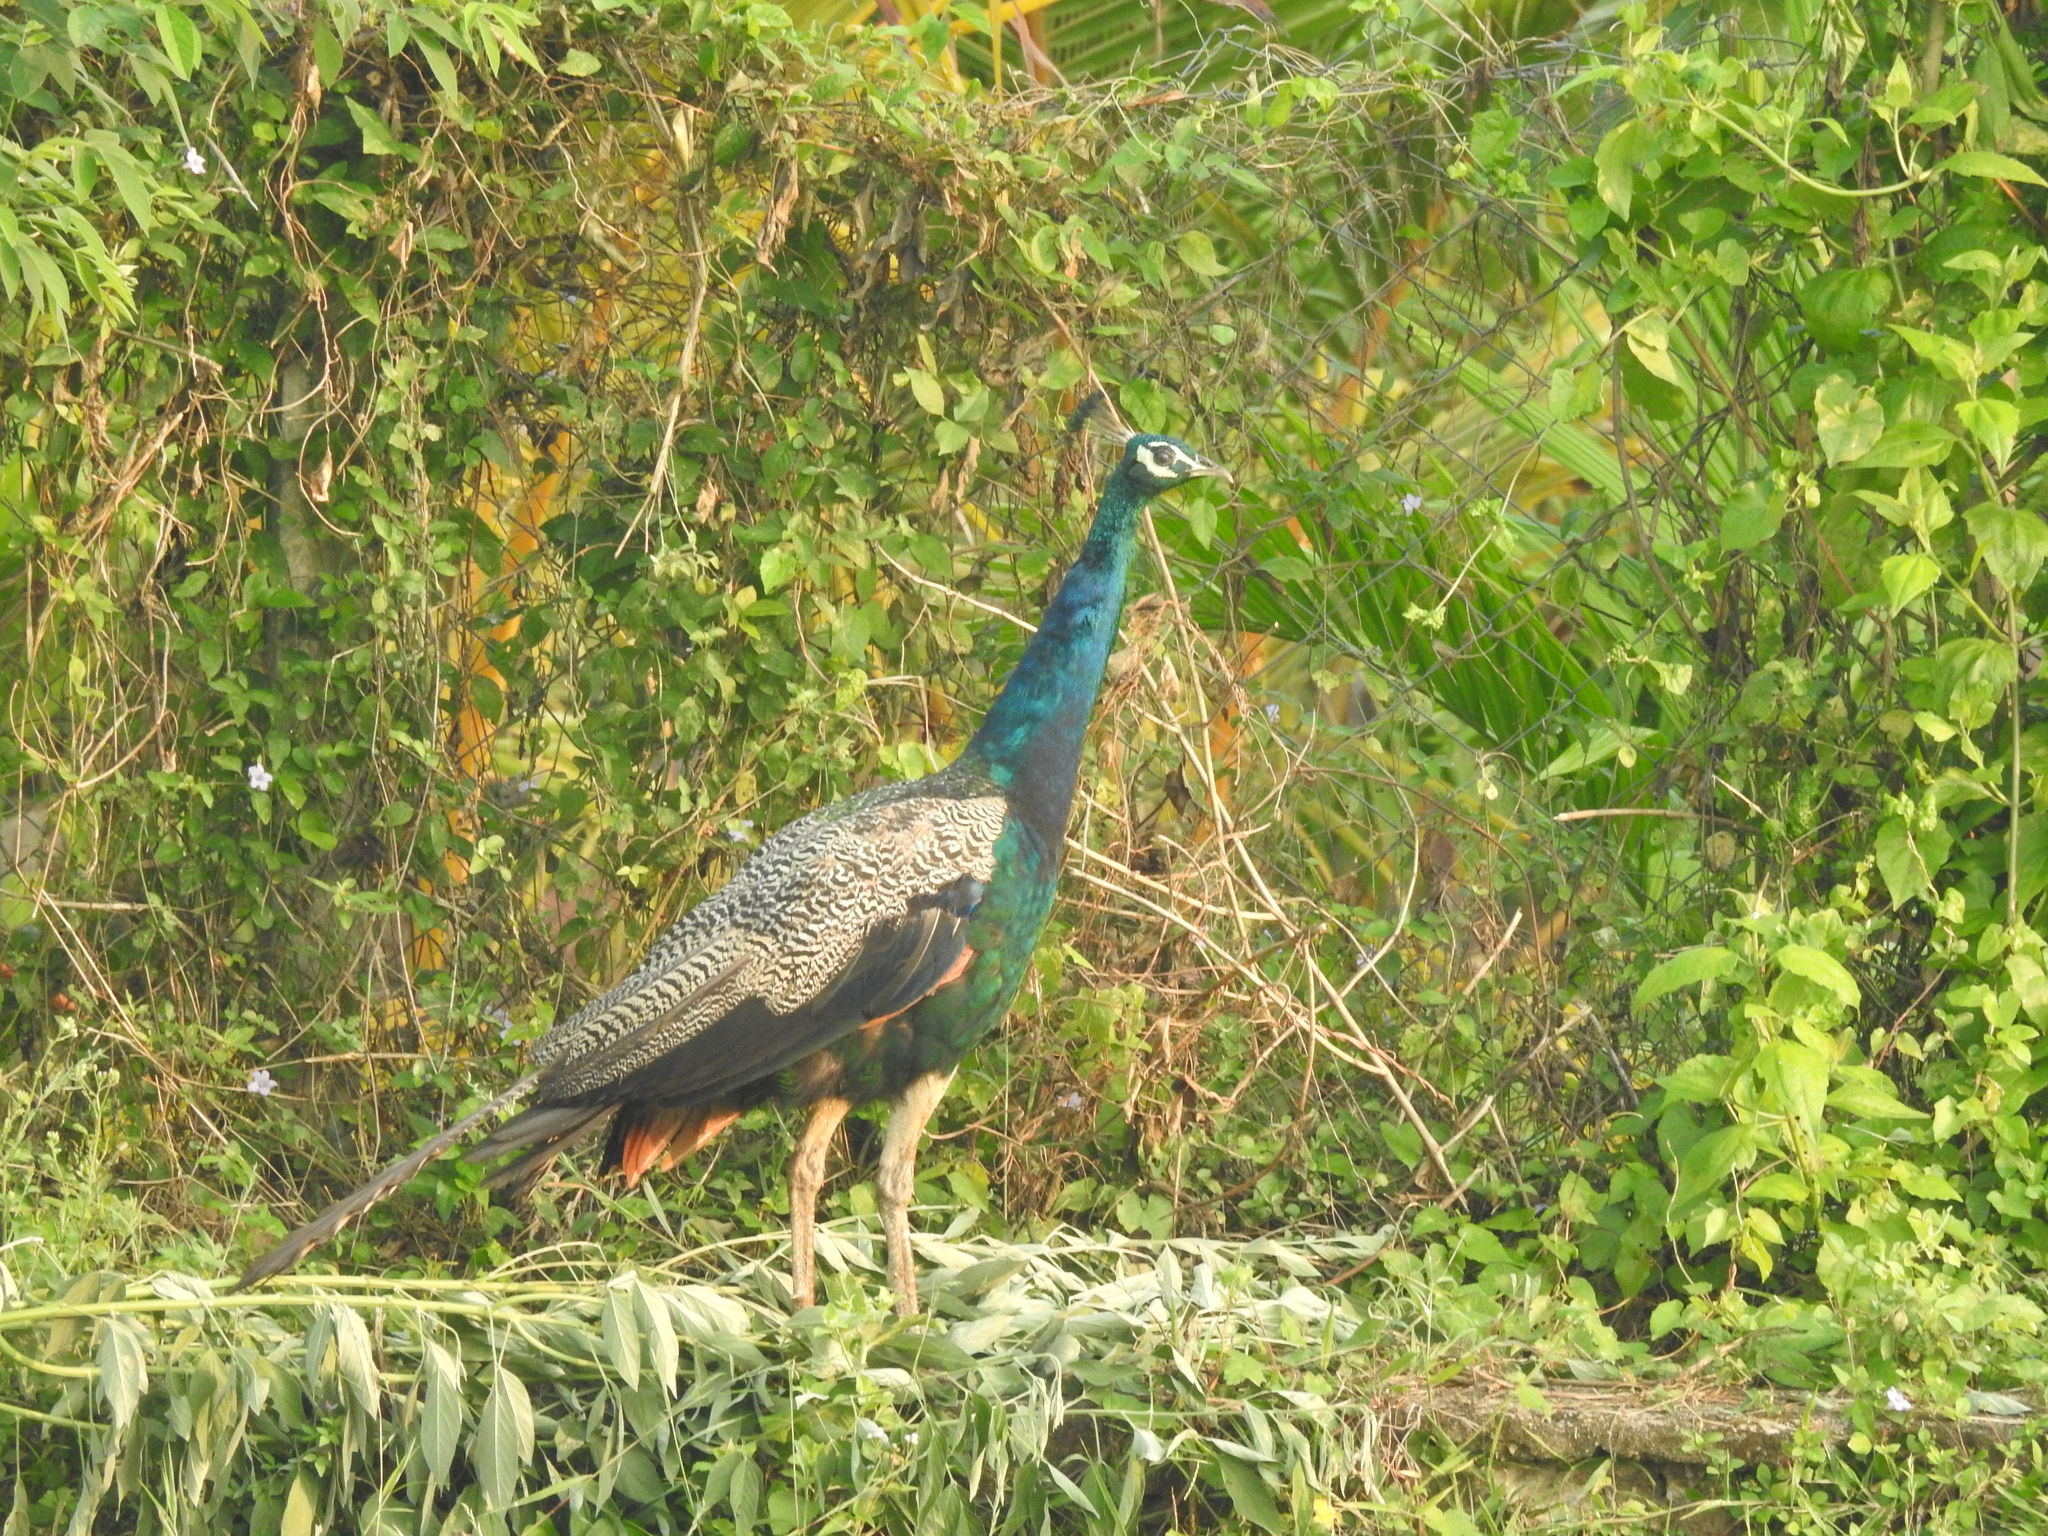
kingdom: Animalia
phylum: Chordata
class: Aves
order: Galliformes
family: Phasianidae
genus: Pavo
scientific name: Pavo cristatus
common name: Indian peafowl
